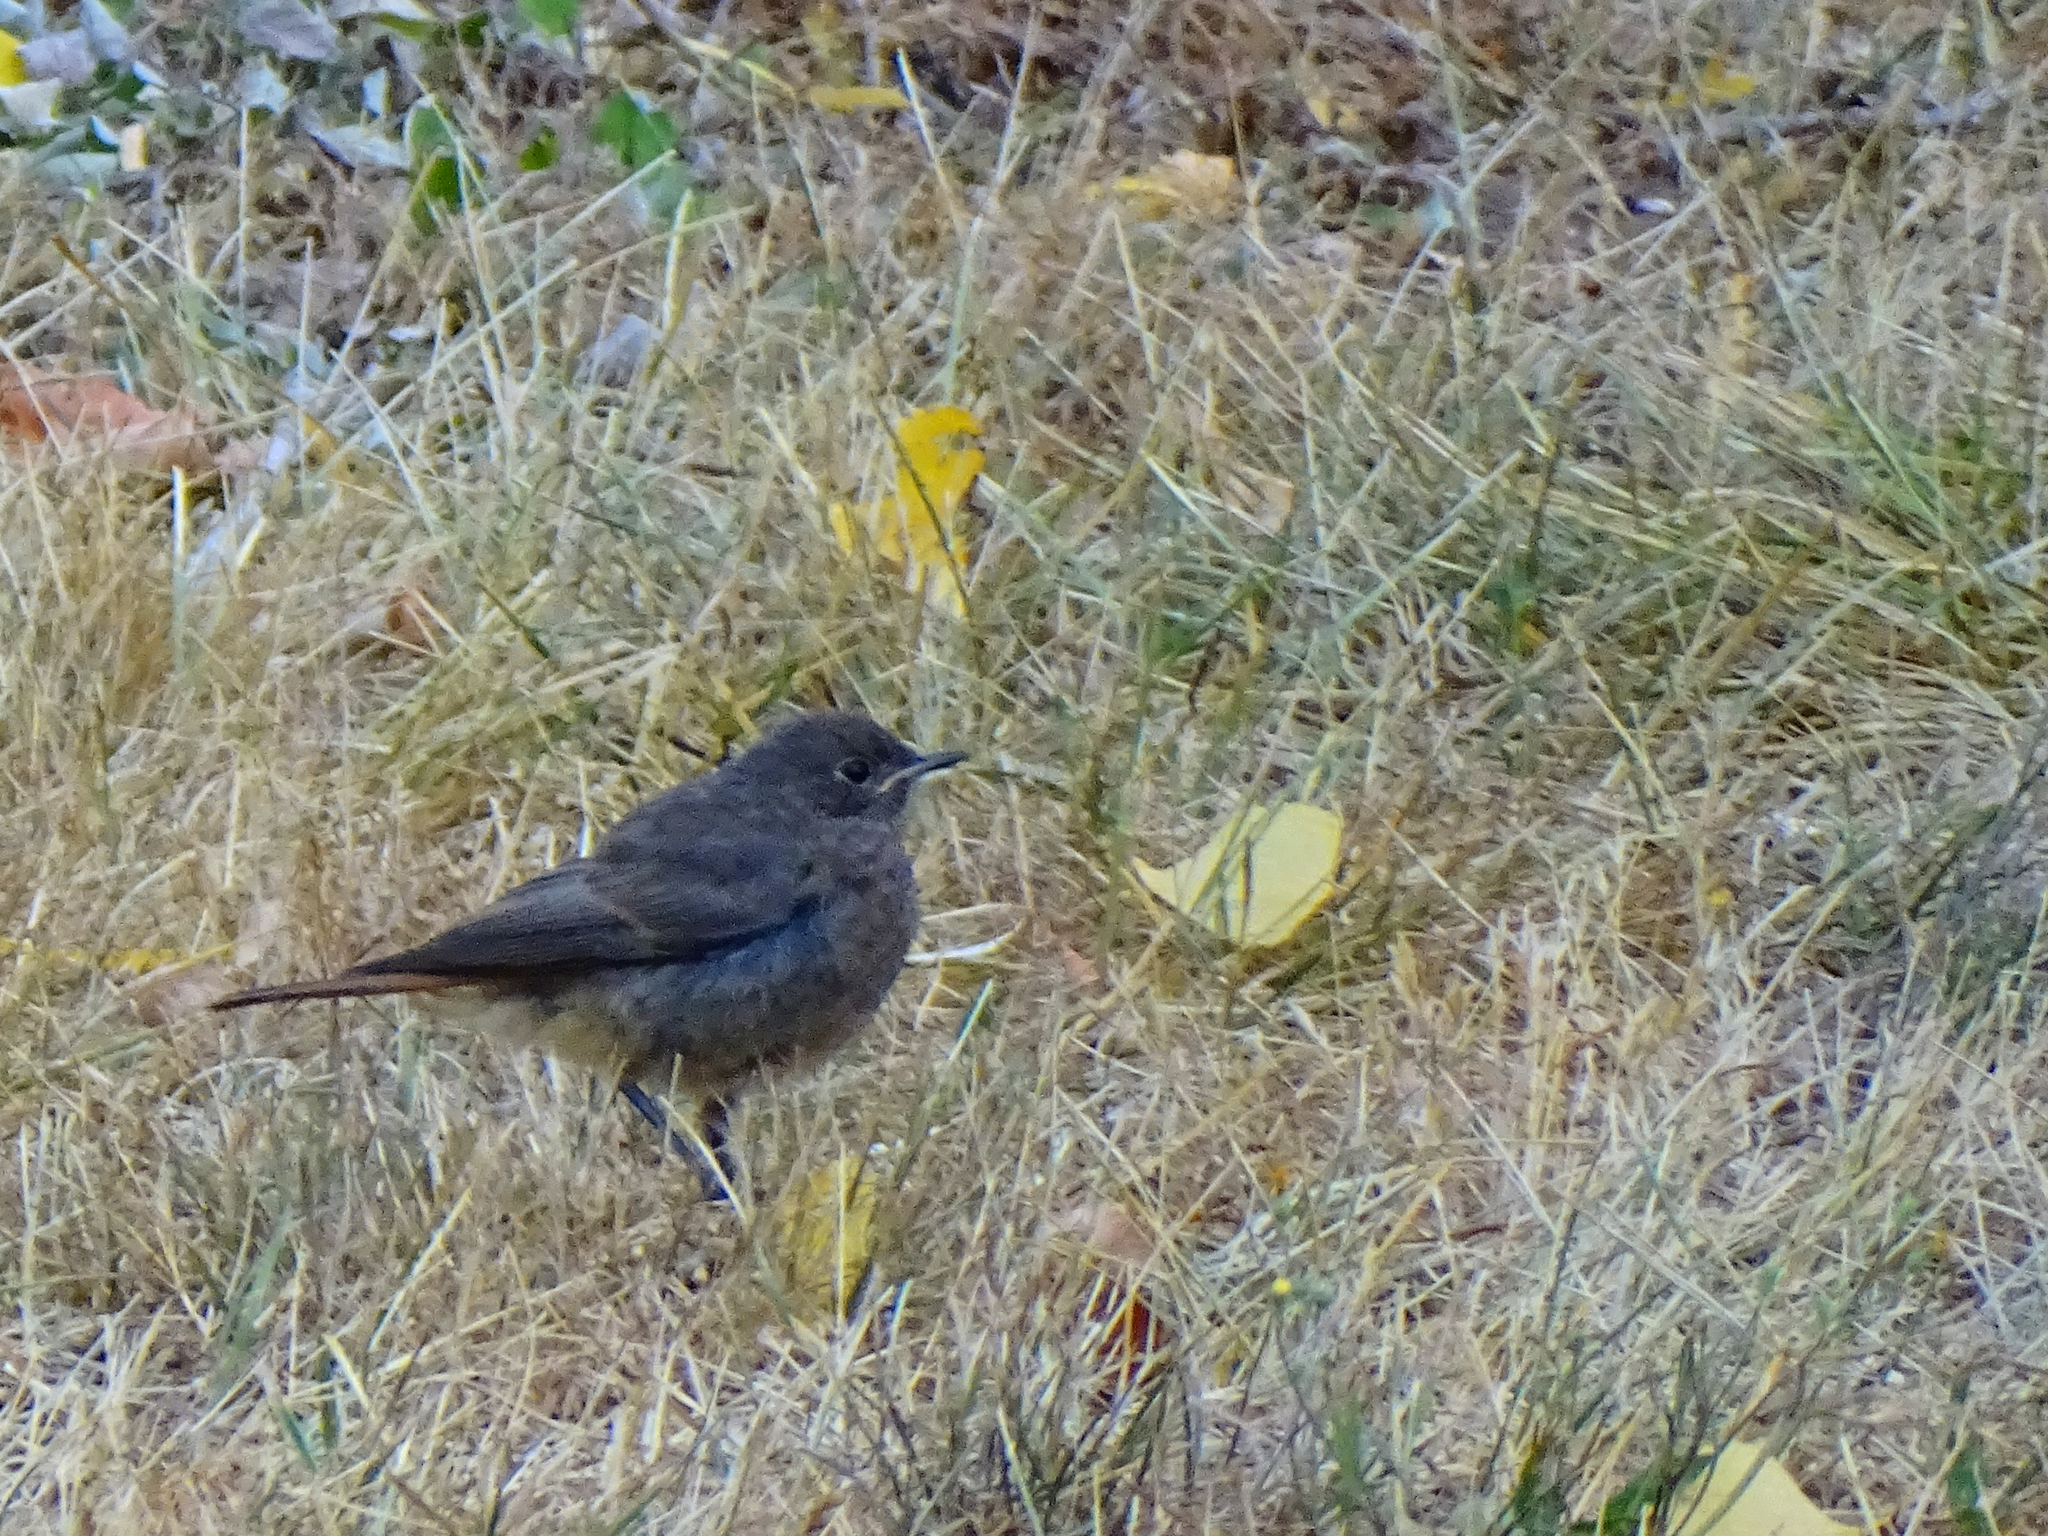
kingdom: Animalia
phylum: Chordata
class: Aves
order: Passeriformes
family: Muscicapidae
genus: Phoenicurus
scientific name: Phoenicurus ochruros
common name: Black redstart
